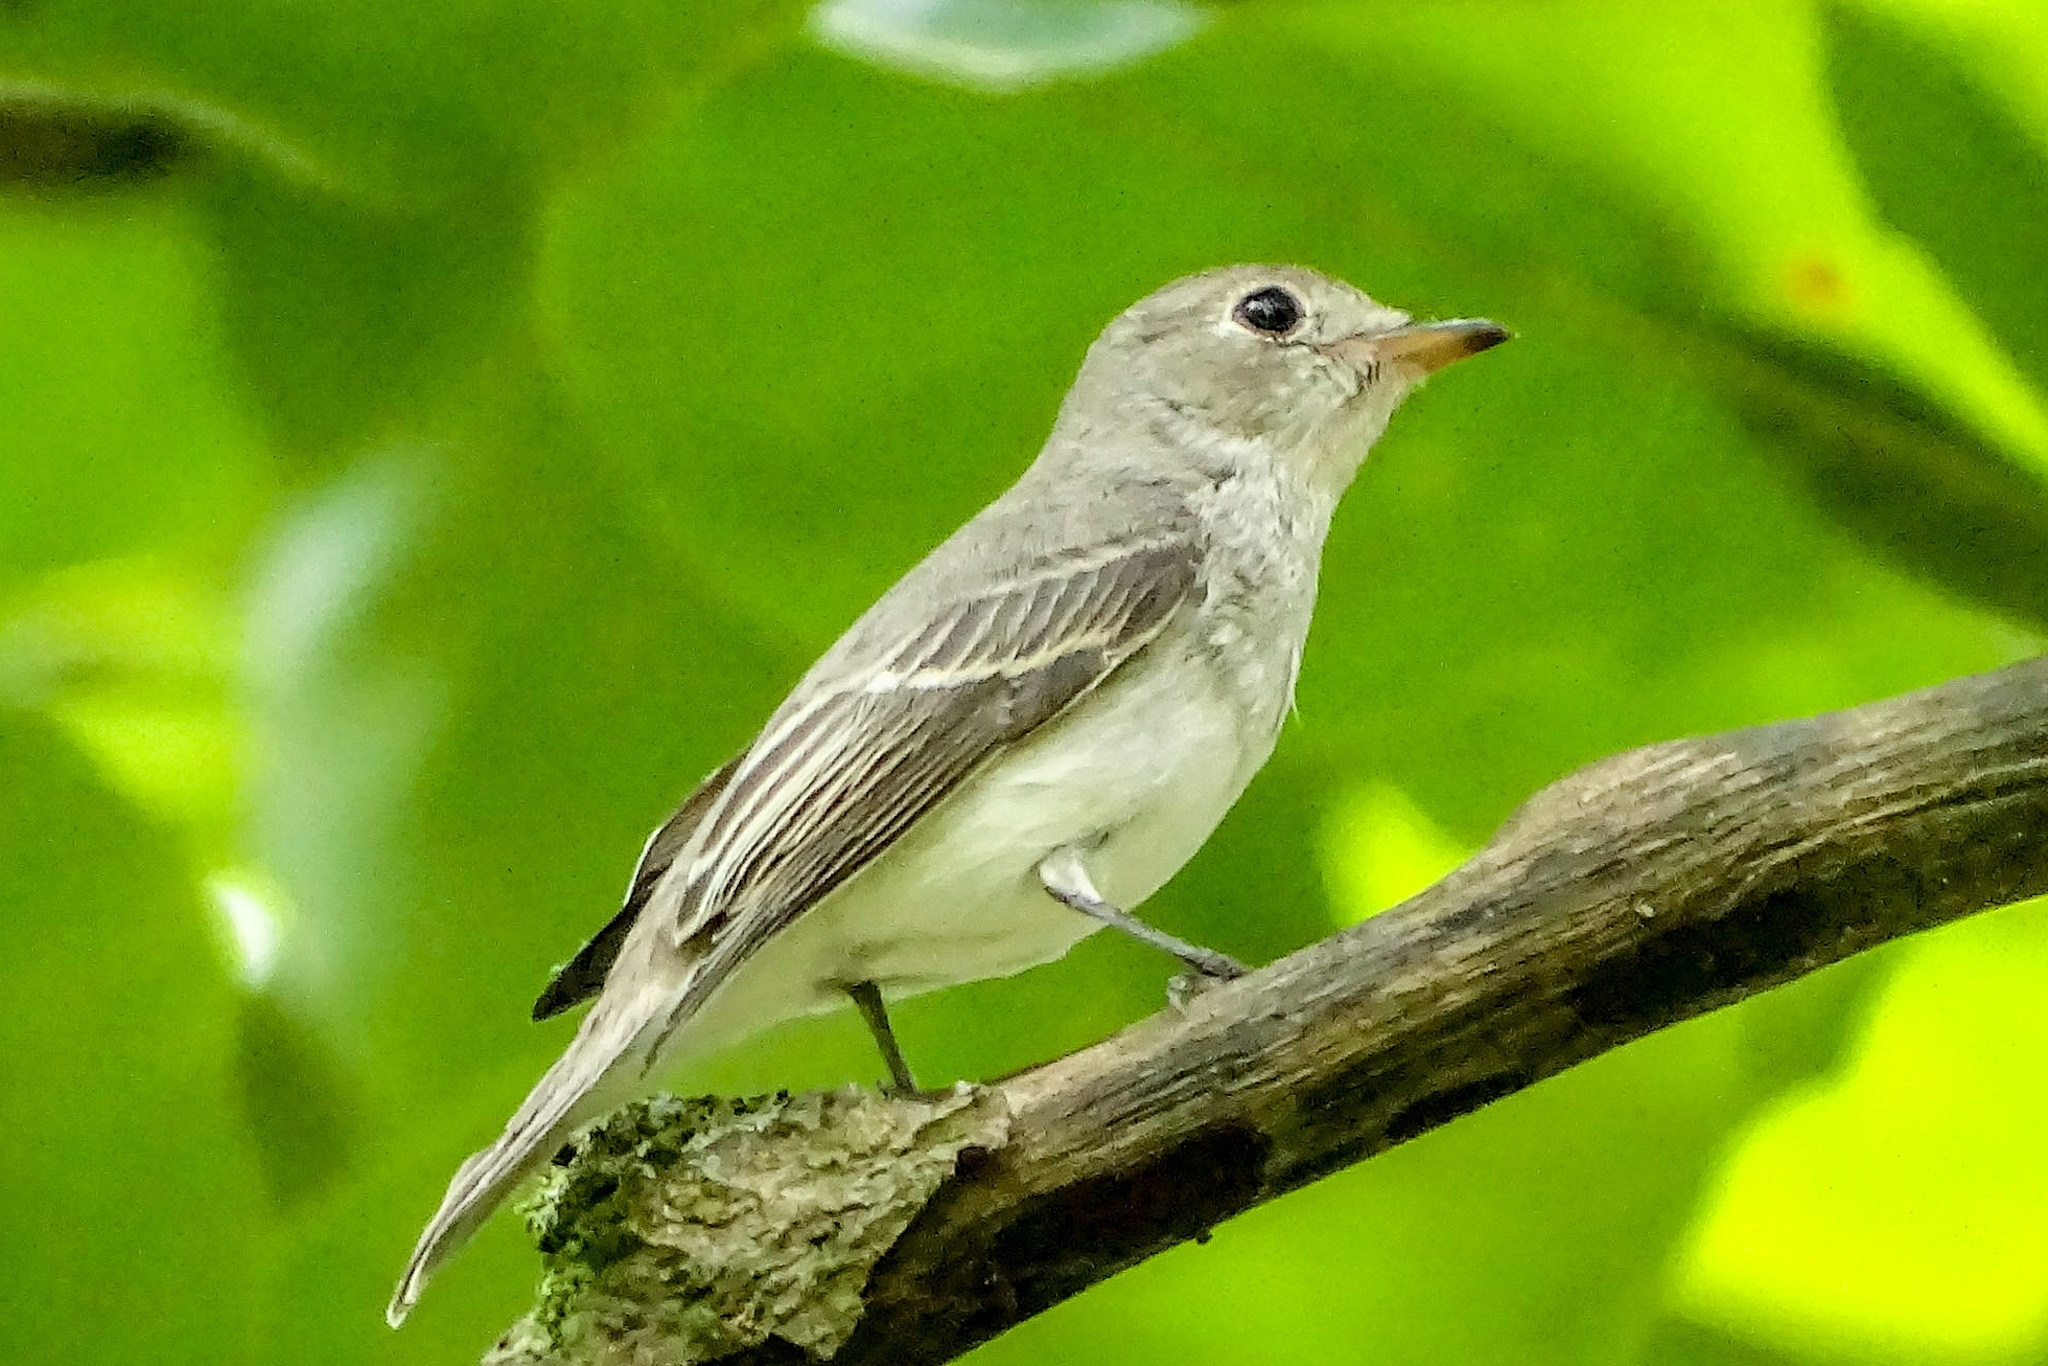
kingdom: Animalia
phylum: Chordata
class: Aves
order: Passeriformes
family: Muscicapidae
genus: Muscicapa
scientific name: Muscicapa latirostris
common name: Asian brown flycatcher
